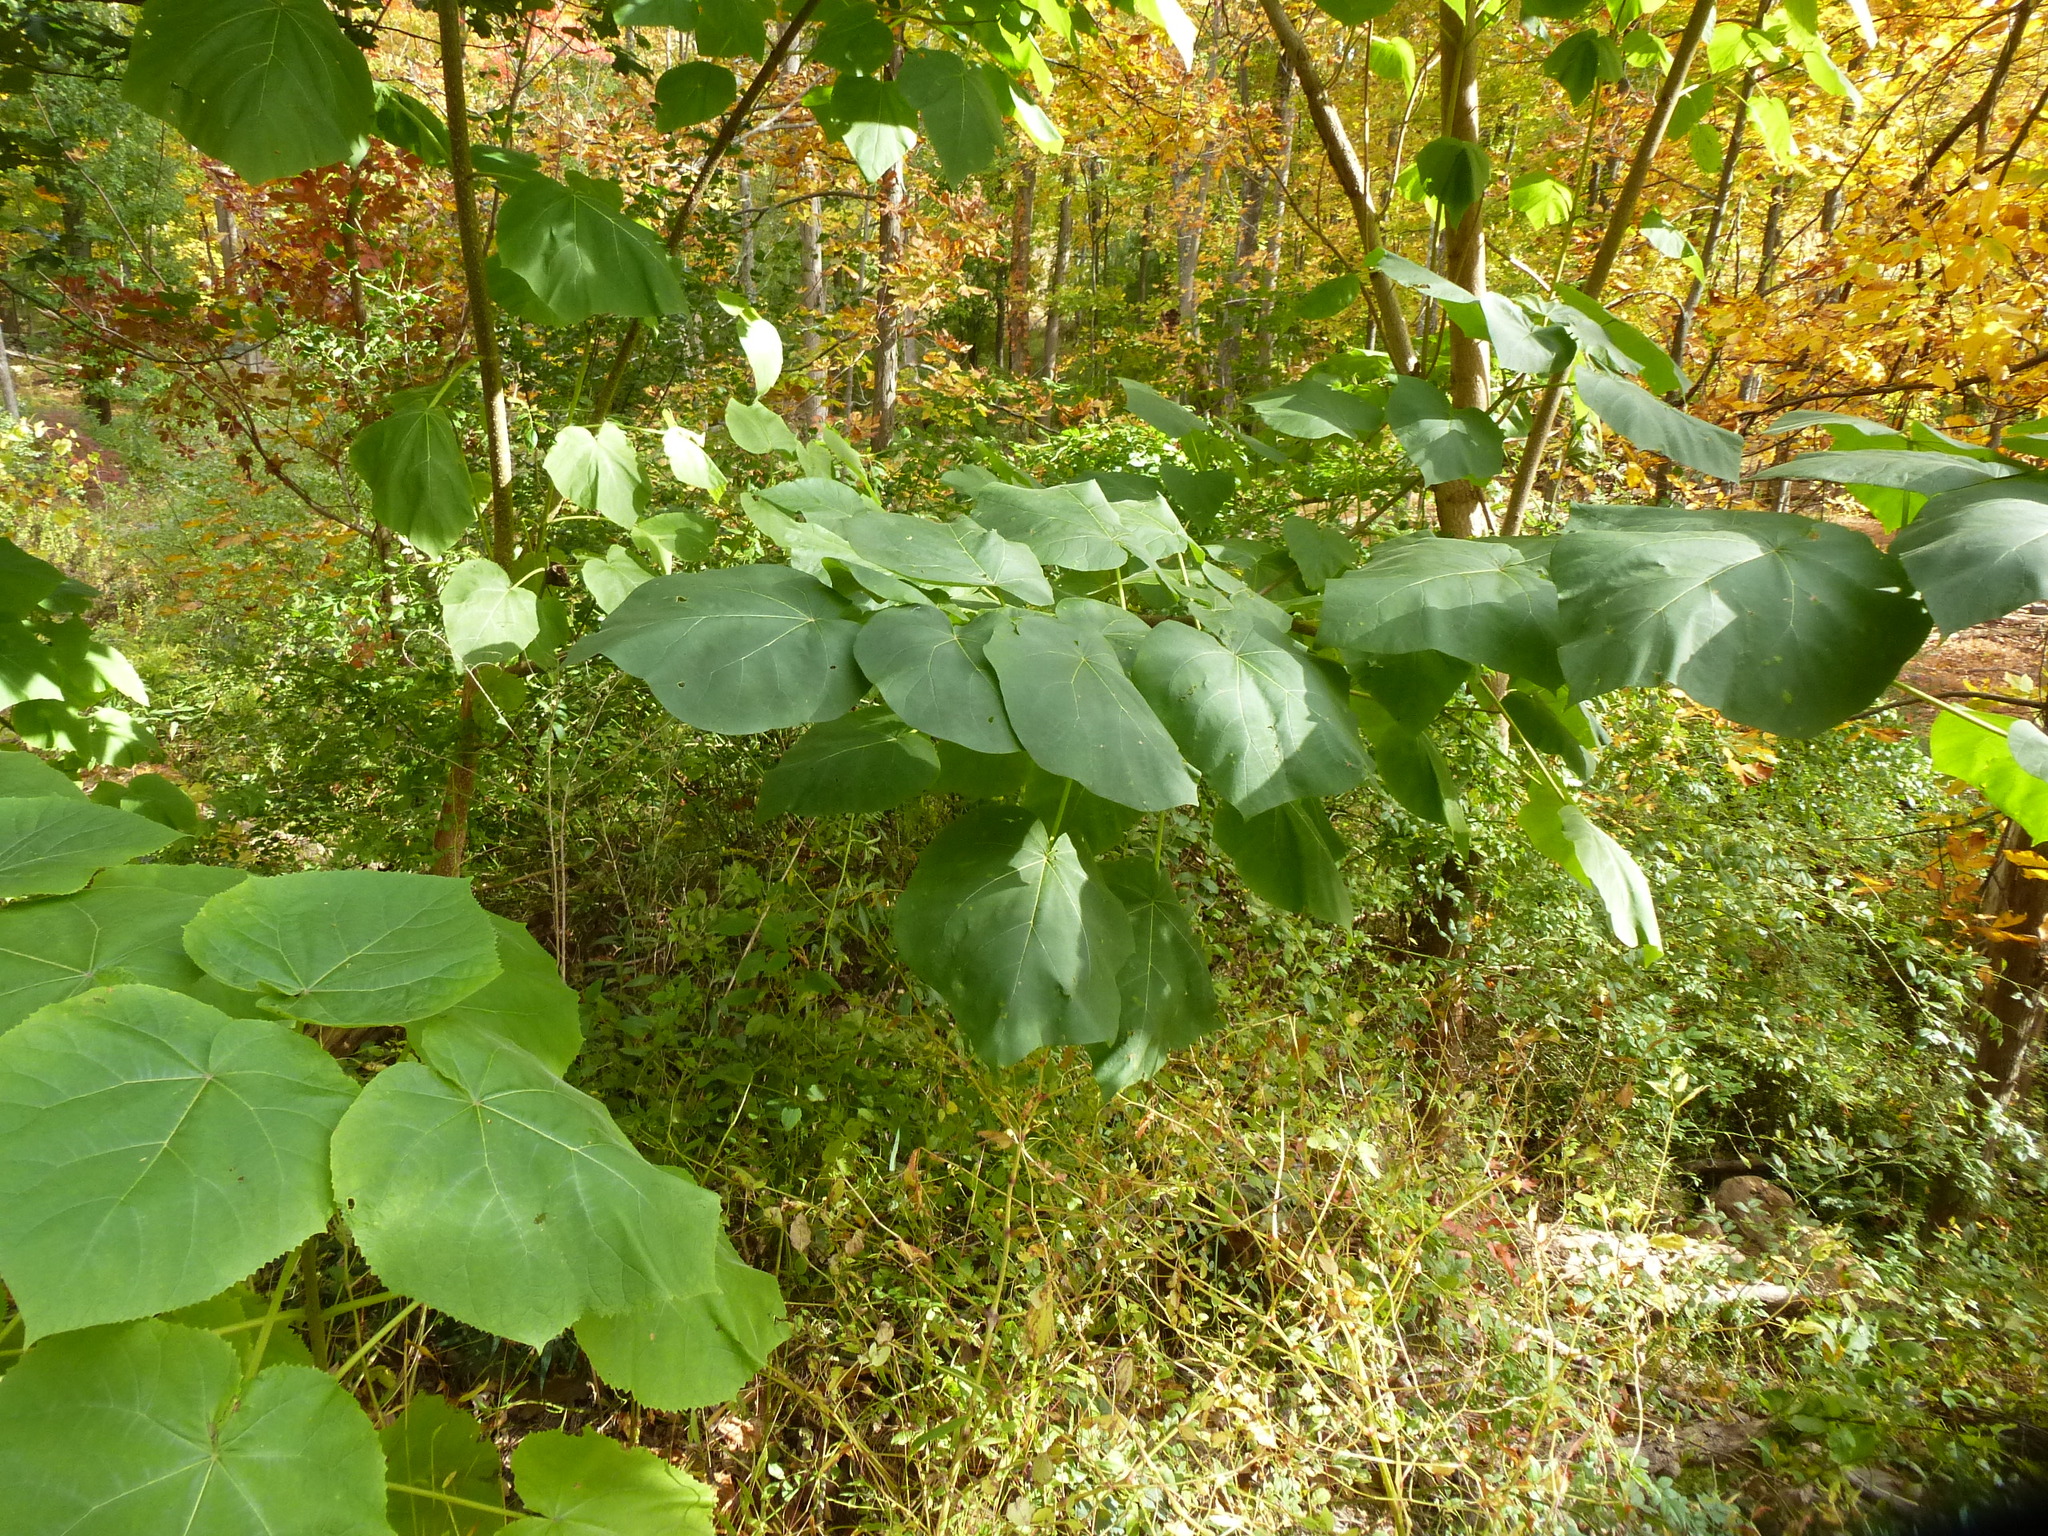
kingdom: Plantae
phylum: Tracheophyta
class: Magnoliopsida
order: Lamiales
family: Paulowniaceae
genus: Paulownia
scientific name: Paulownia tomentosa
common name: Foxglove-tree
